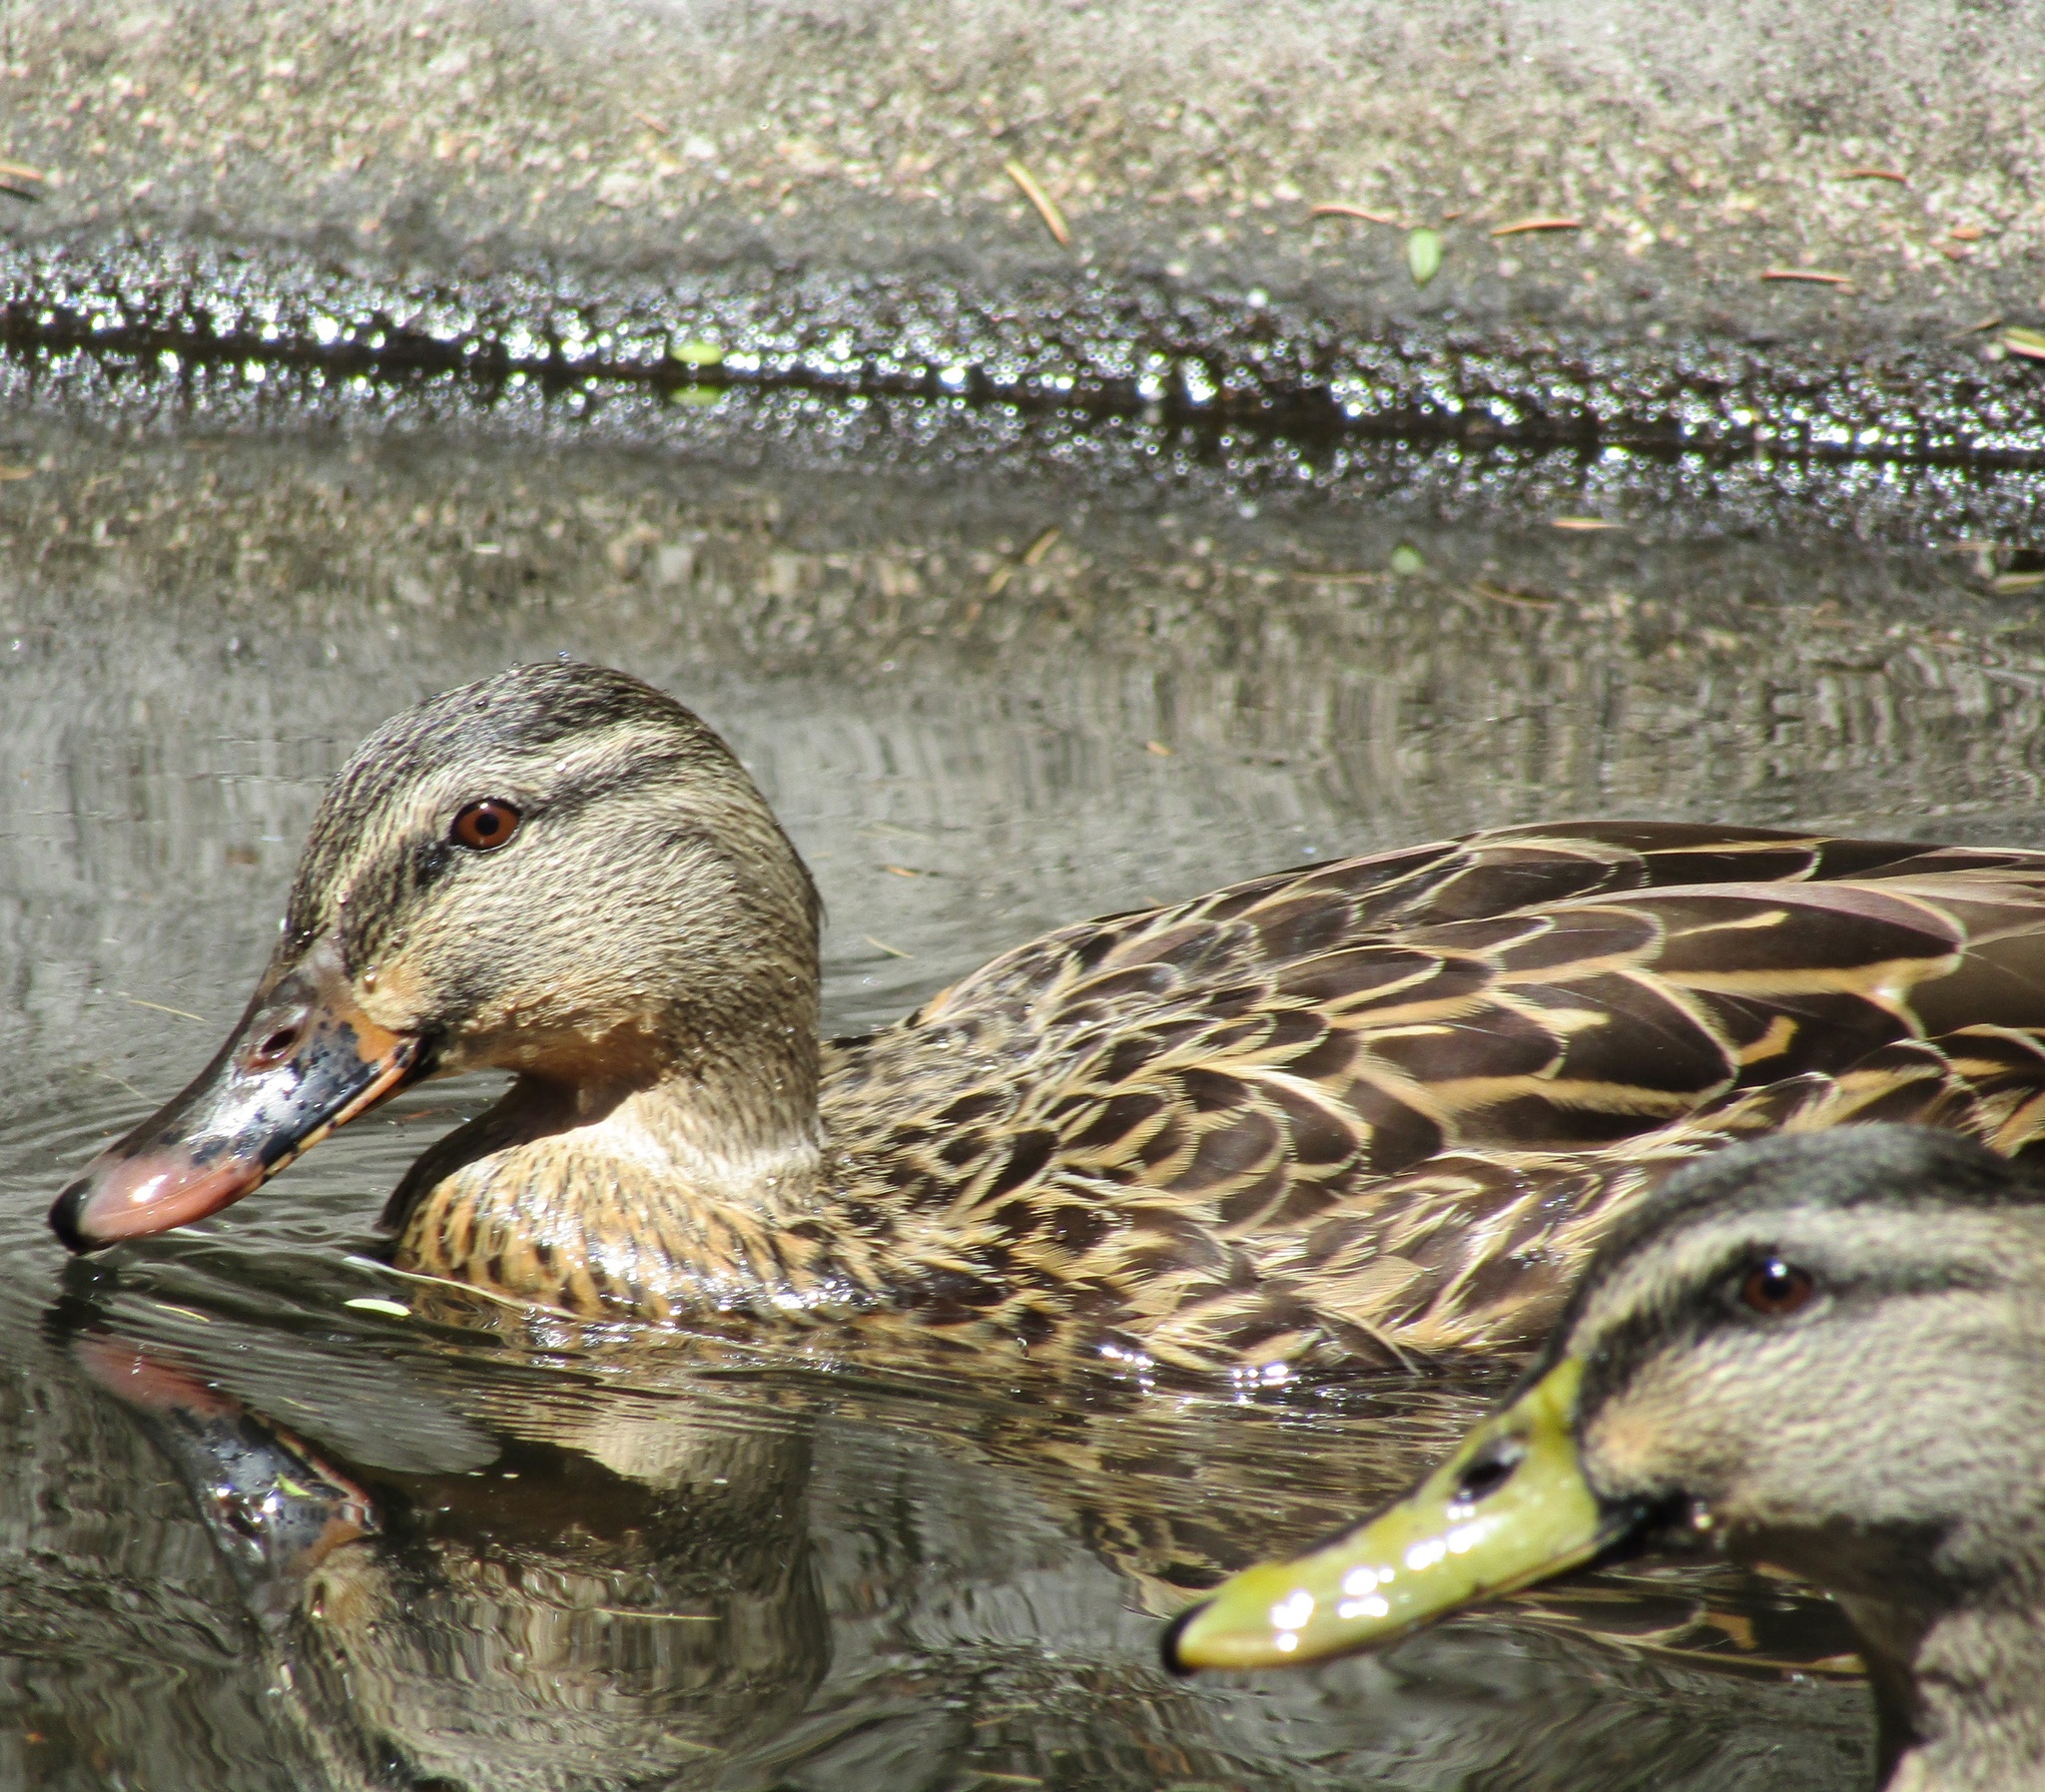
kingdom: Animalia
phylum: Chordata
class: Aves
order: Anseriformes
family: Anatidae
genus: Anas
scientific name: Anas
